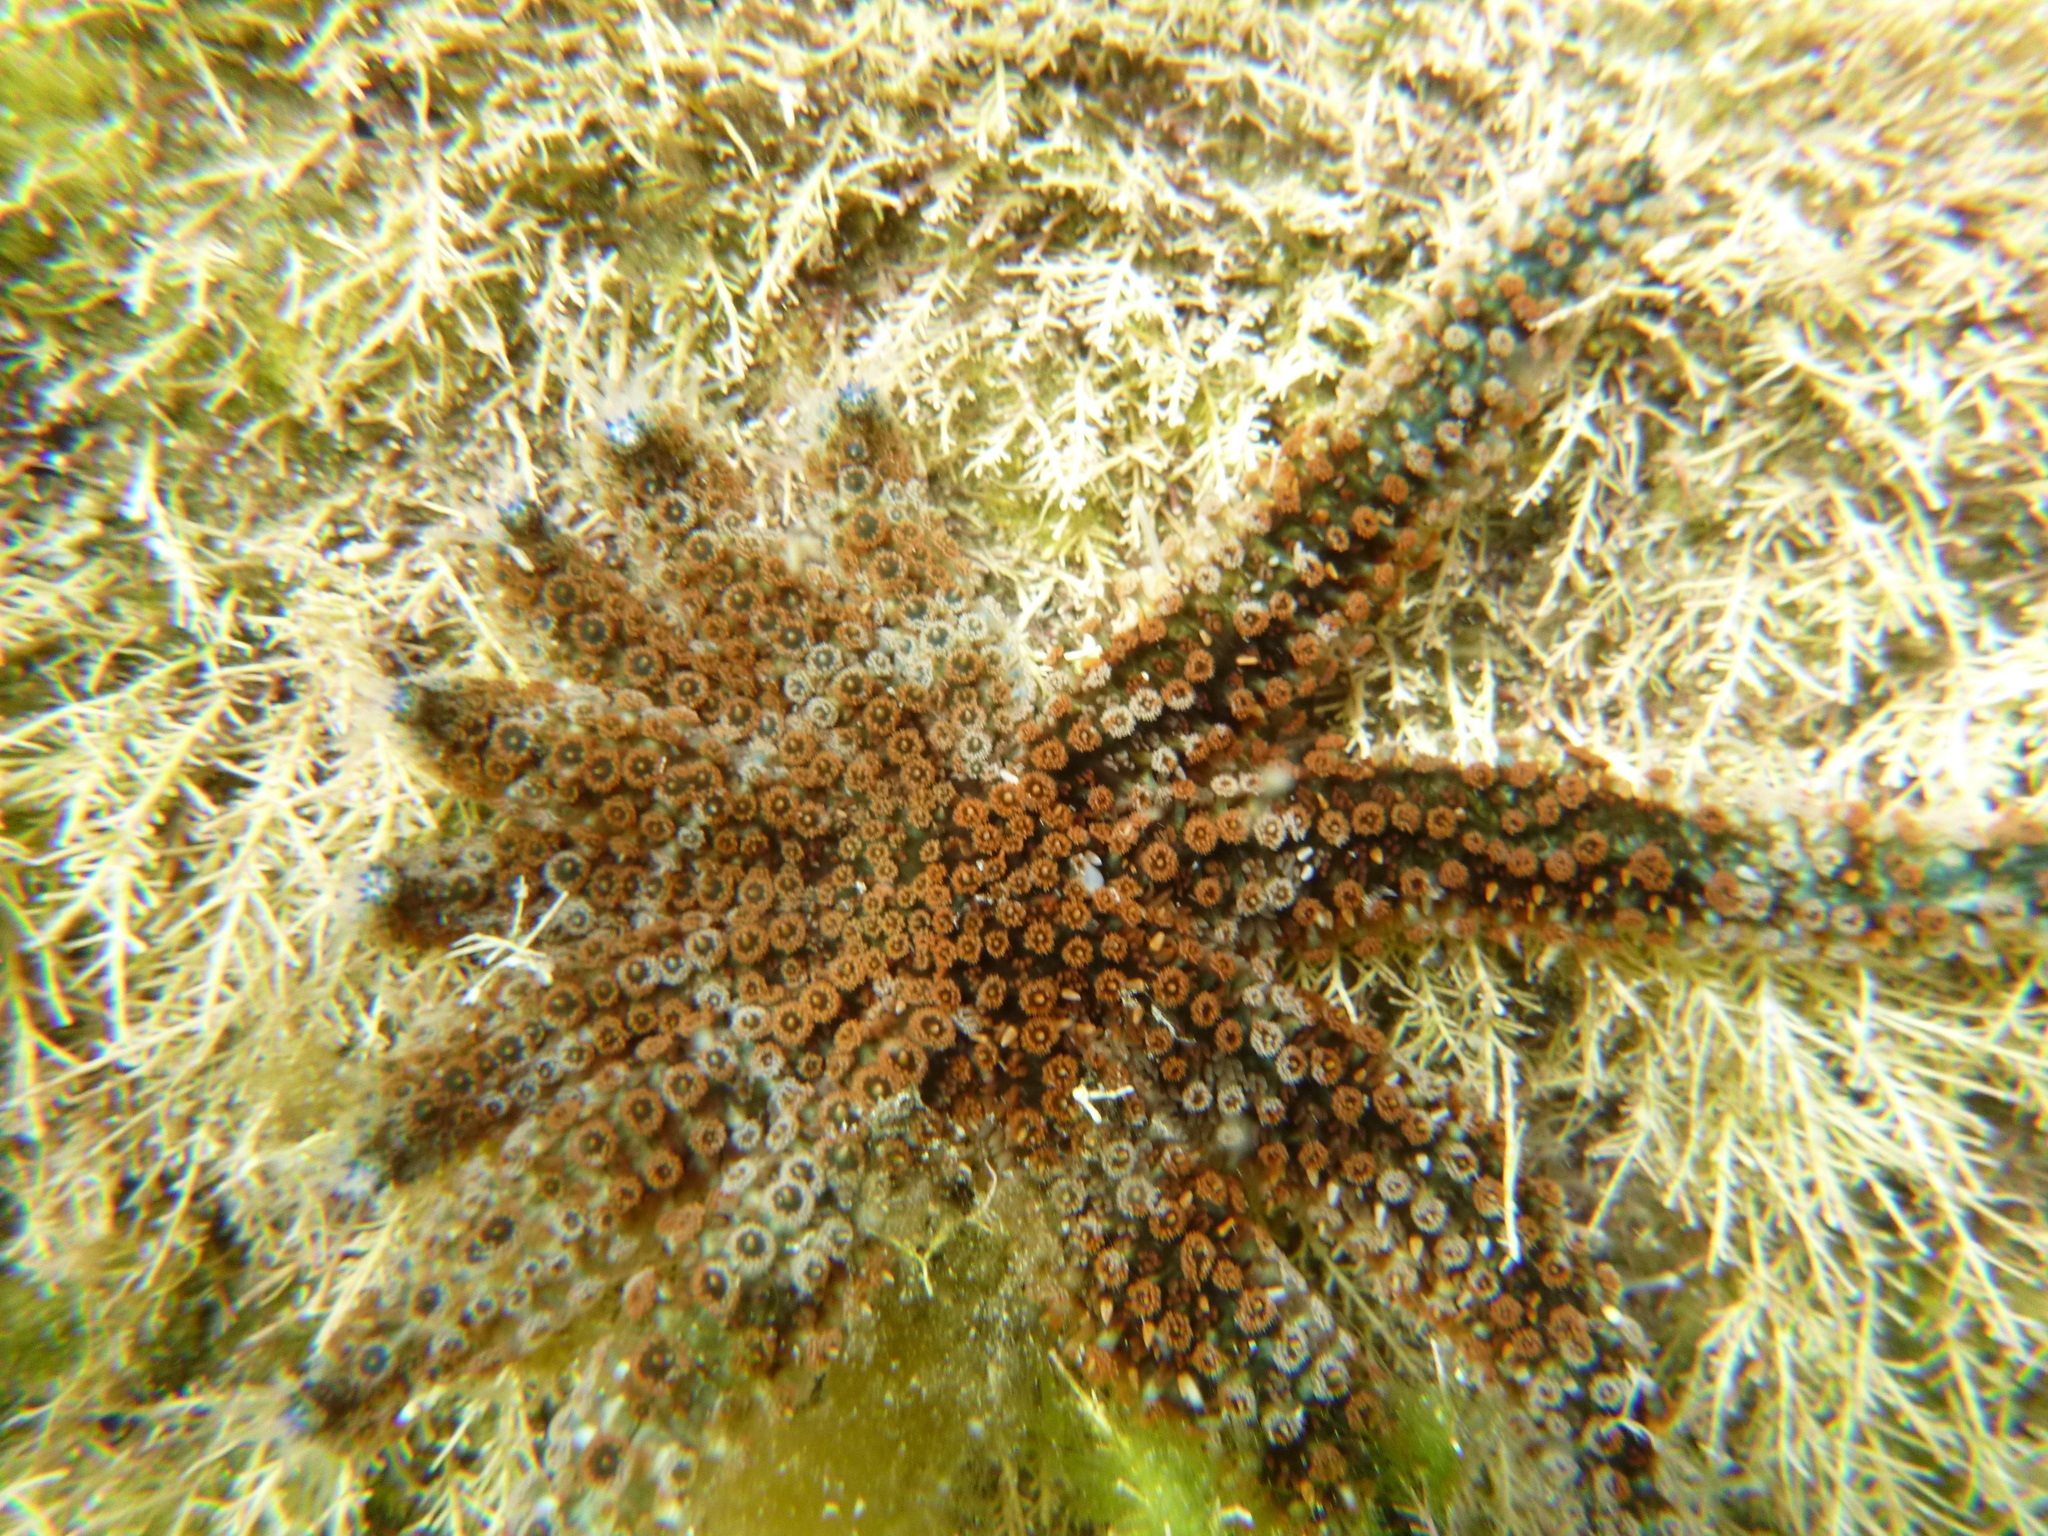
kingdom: Animalia
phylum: Echinodermata
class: Asteroidea
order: Forcipulatida
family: Asteriidae
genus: Coscinasterias
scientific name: Coscinasterias muricata
